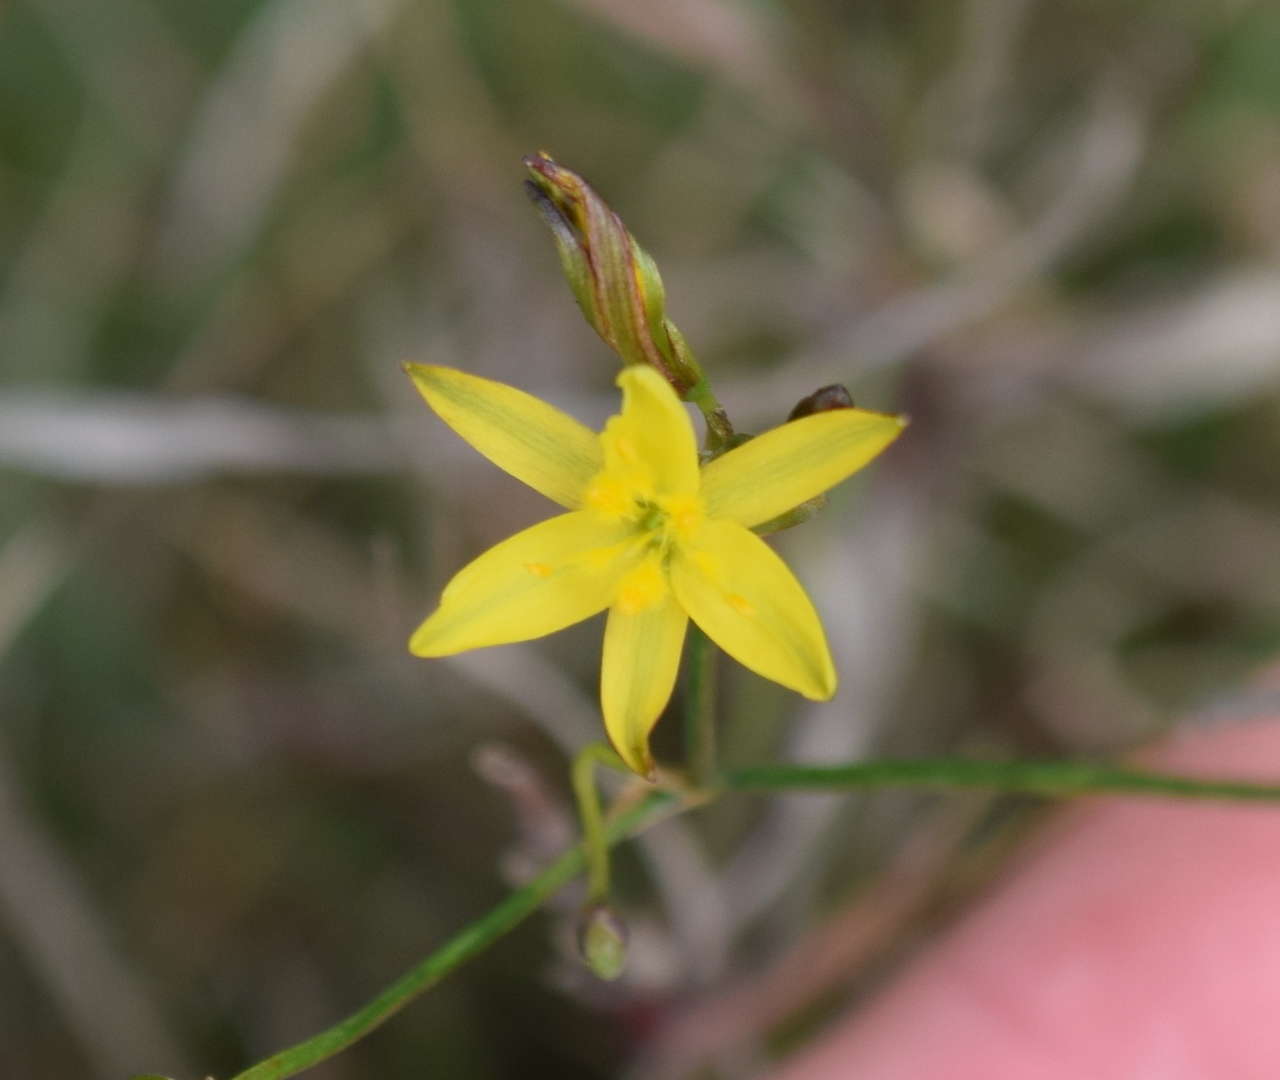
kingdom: Plantae
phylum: Tracheophyta
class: Liliopsida
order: Asparagales
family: Asphodelaceae
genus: Tricoryne
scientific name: Tricoryne elatior
